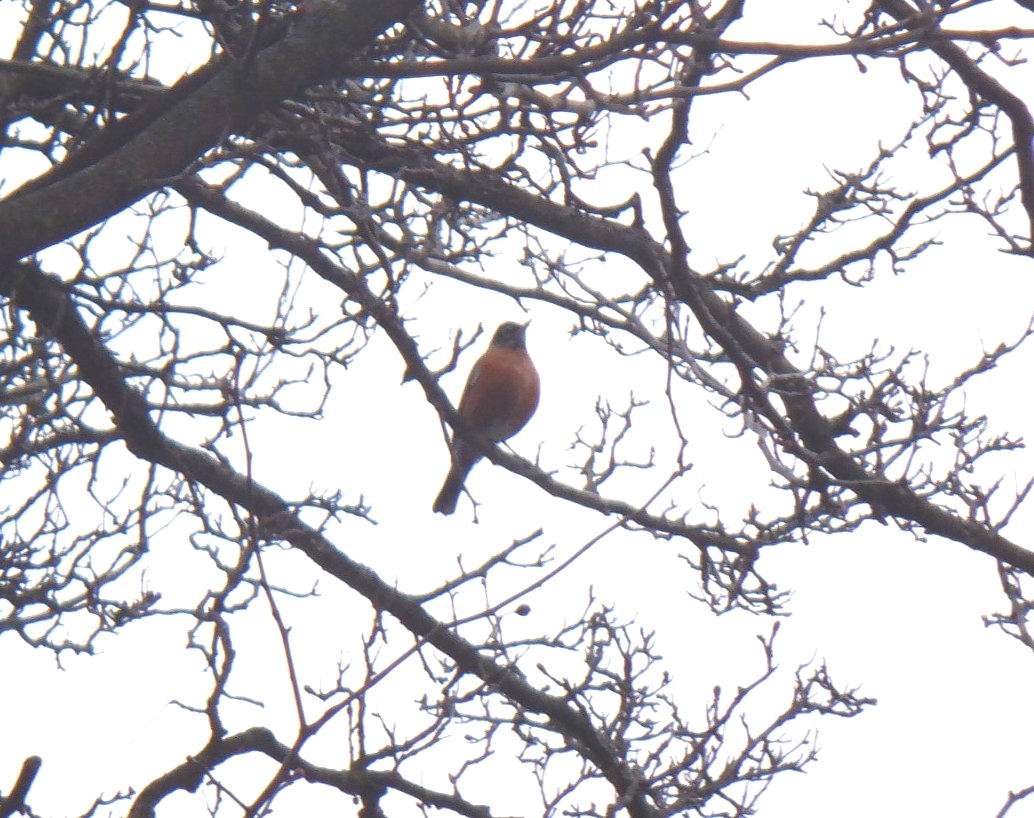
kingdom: Animalia
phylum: Chordata
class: Aves
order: Passeriformes
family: Turdidae
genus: Turdus
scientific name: Turdus migratorius
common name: American robin
